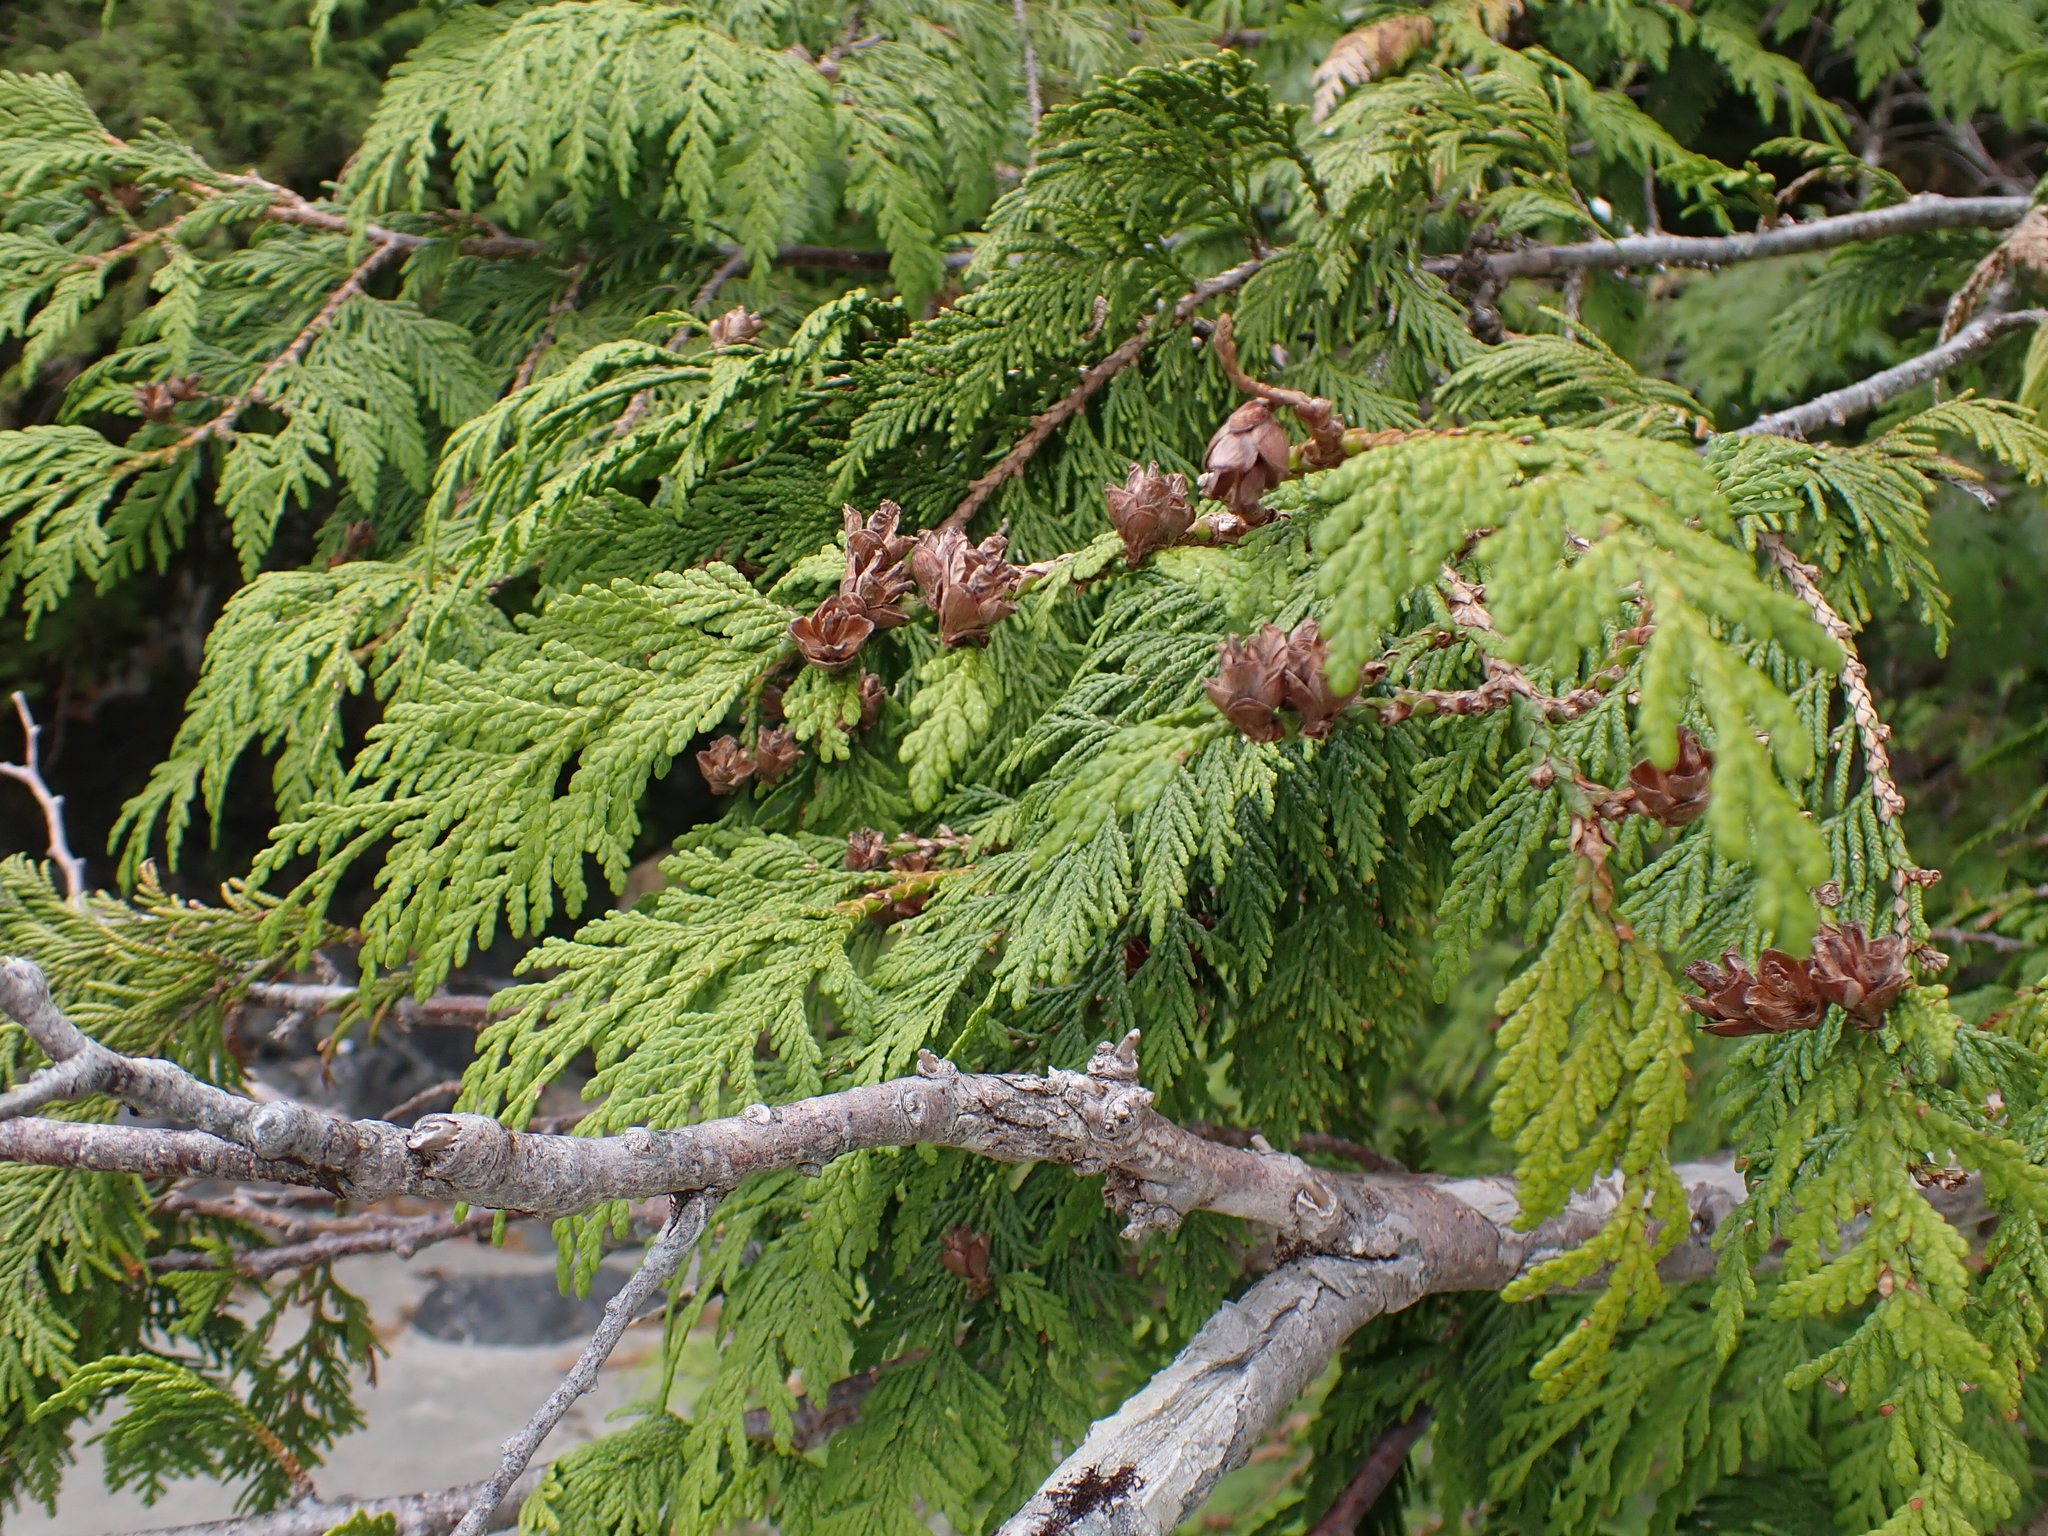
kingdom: Plantae
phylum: Tracheophyta
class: Pinopsida
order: Pinales
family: Cupressaceae
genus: Thuja
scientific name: Thuja plicata
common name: Western red-cedar
